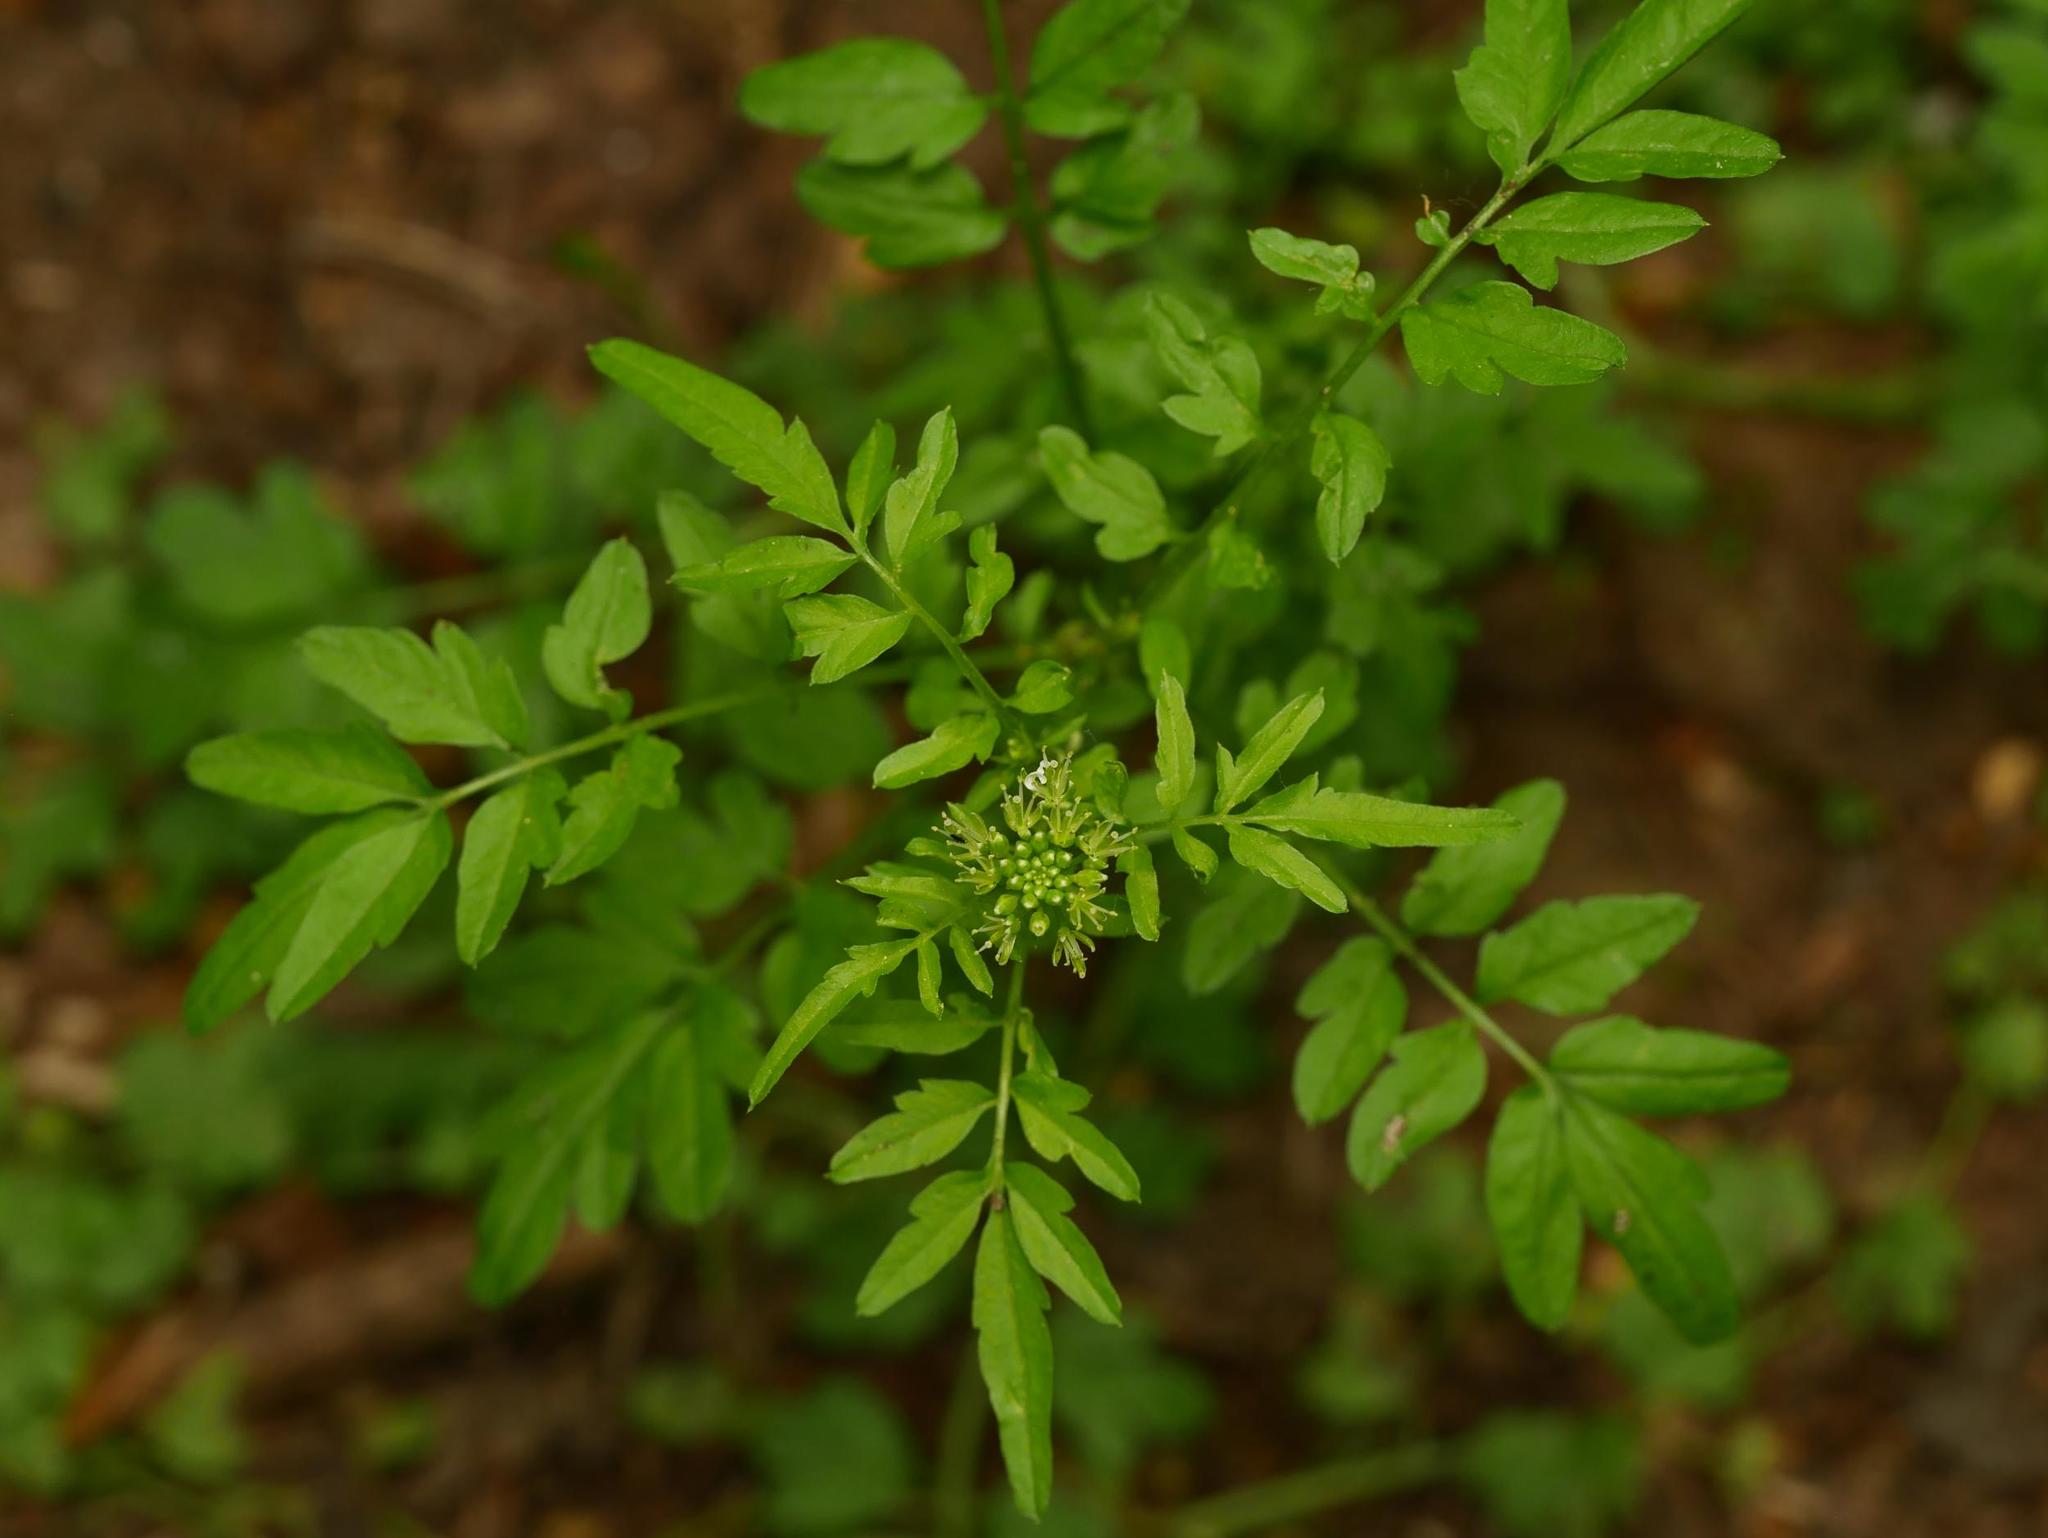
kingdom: Plantae
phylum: Tracheophyta
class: Magnoliopsida
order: Brassicales
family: Brassicaceae
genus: Cardamine
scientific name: Cardamine impatiens
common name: Narrow-leaved bitter-cress
